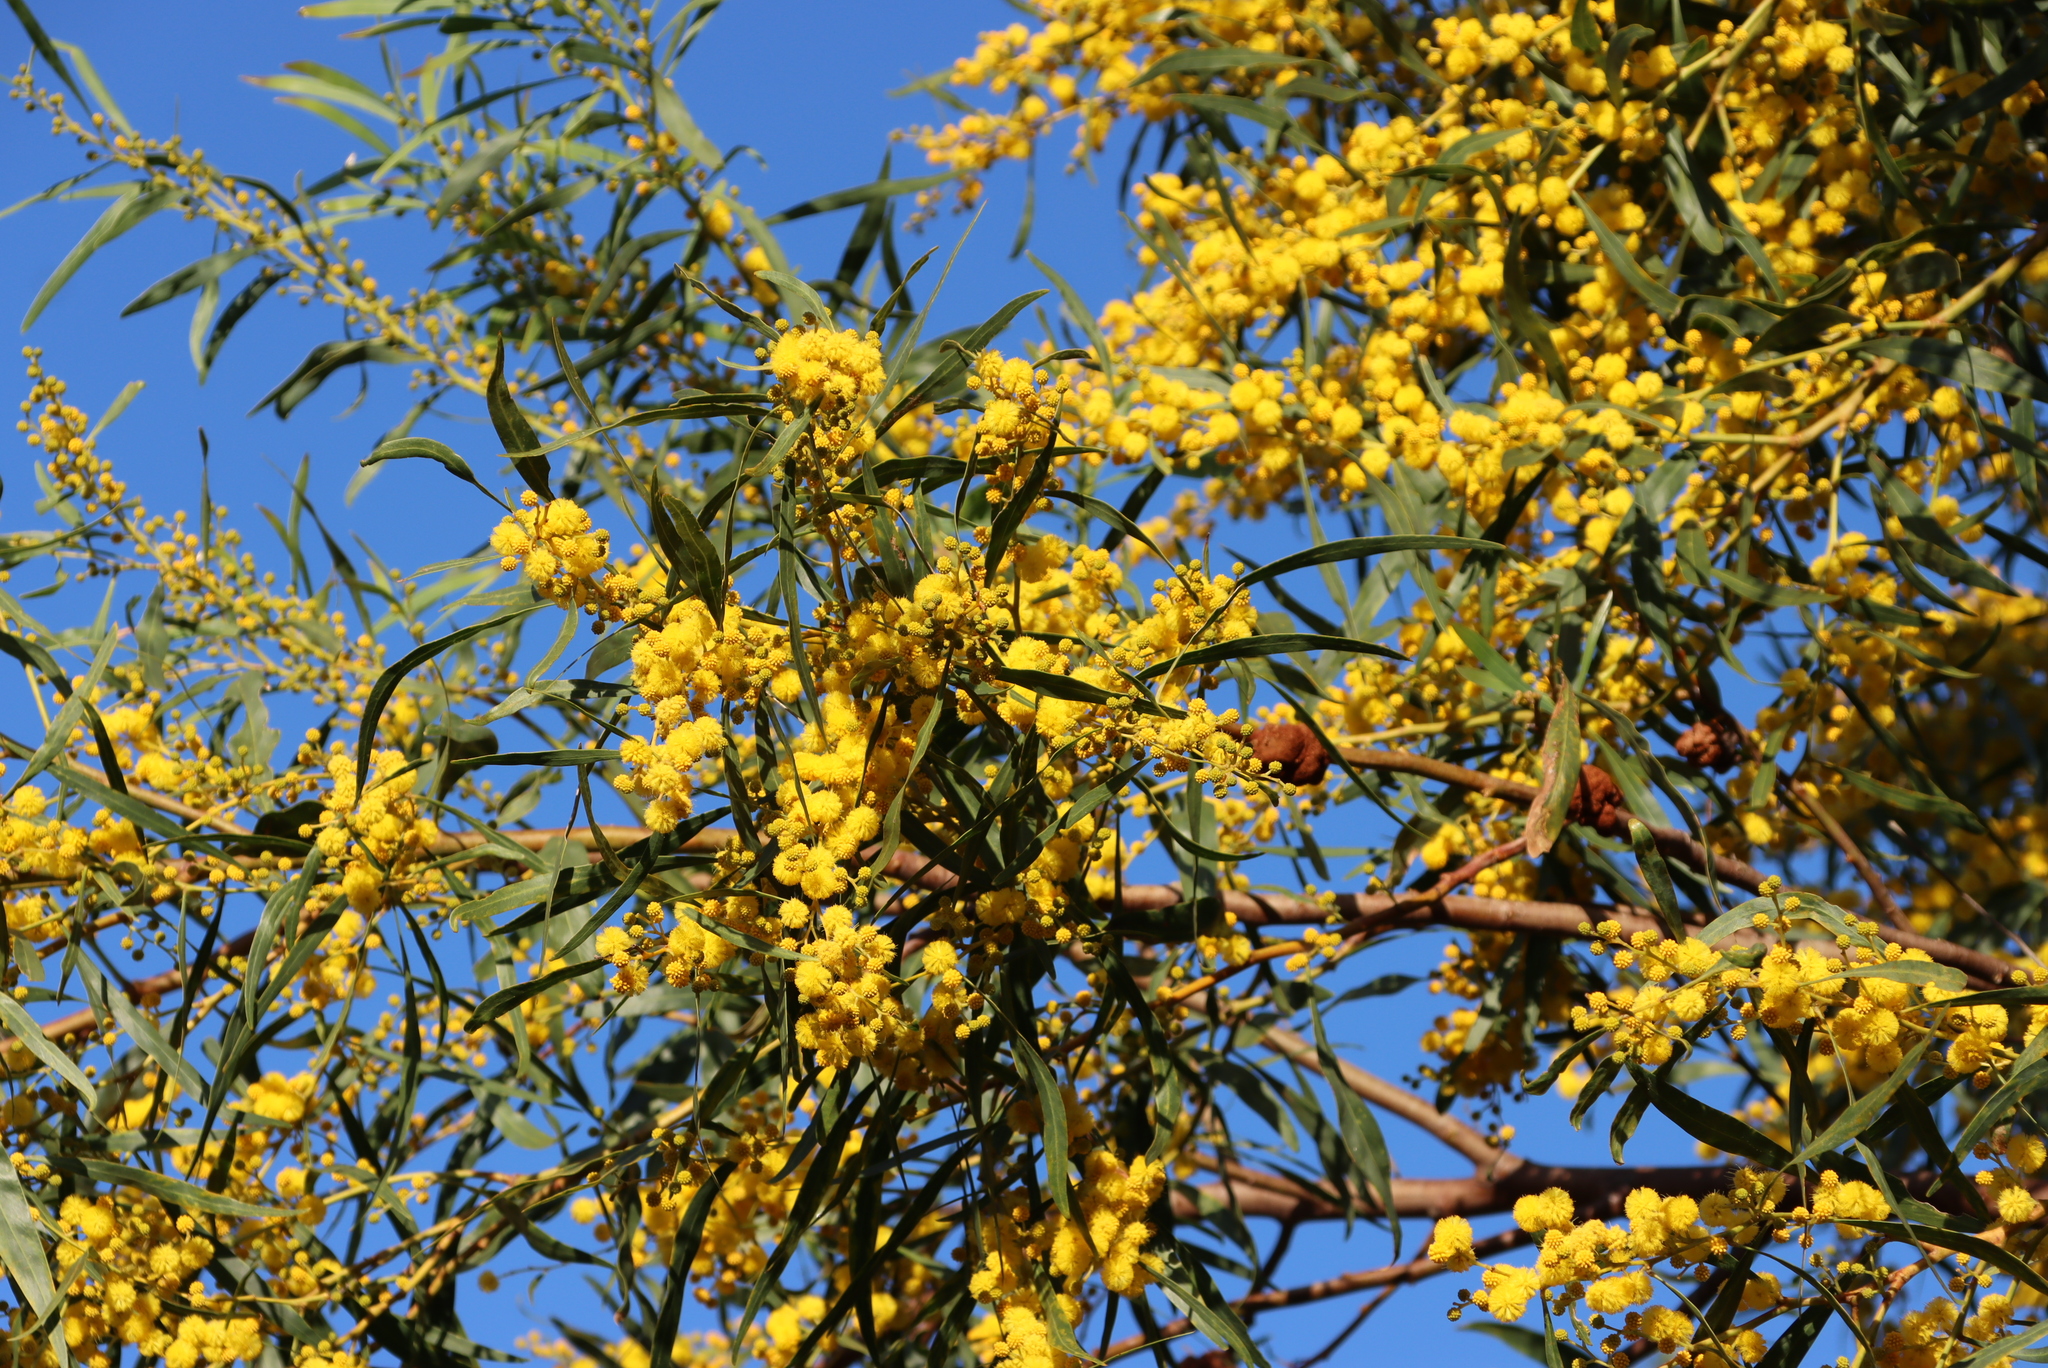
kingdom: Plantae
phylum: Tracheophyta
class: Magnoliopsida
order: Fabales
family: Fabaceae
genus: Acacia
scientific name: Acacia saligna
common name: Orange wattle
